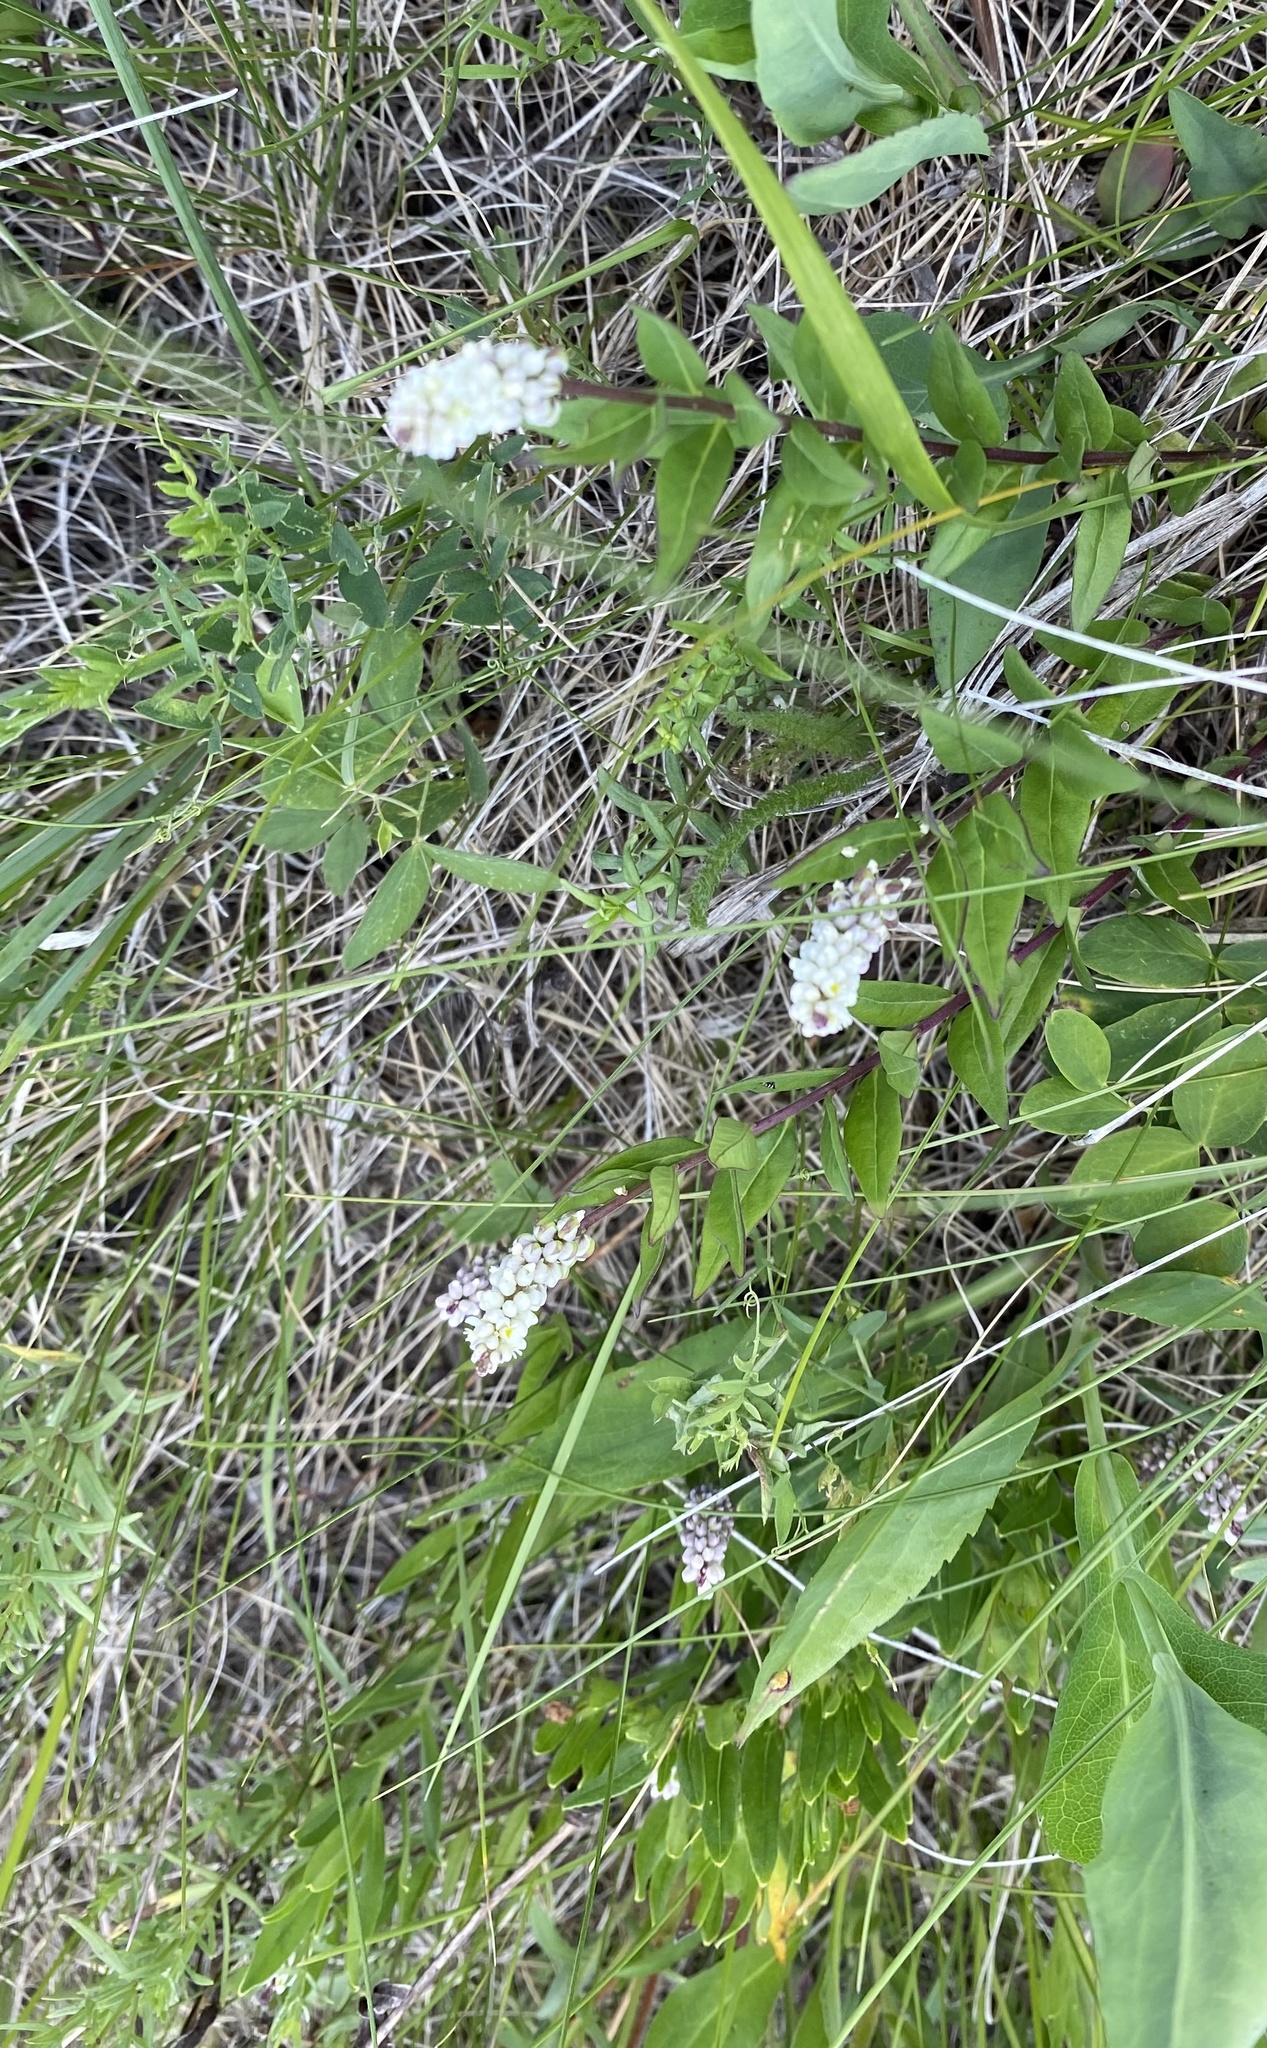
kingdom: Plantae
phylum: Tracheophyta
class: Magnoliopsida
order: Fabales
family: Polygalaceae
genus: Polygala
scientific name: Polygala senega
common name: Seneca snakeroot
